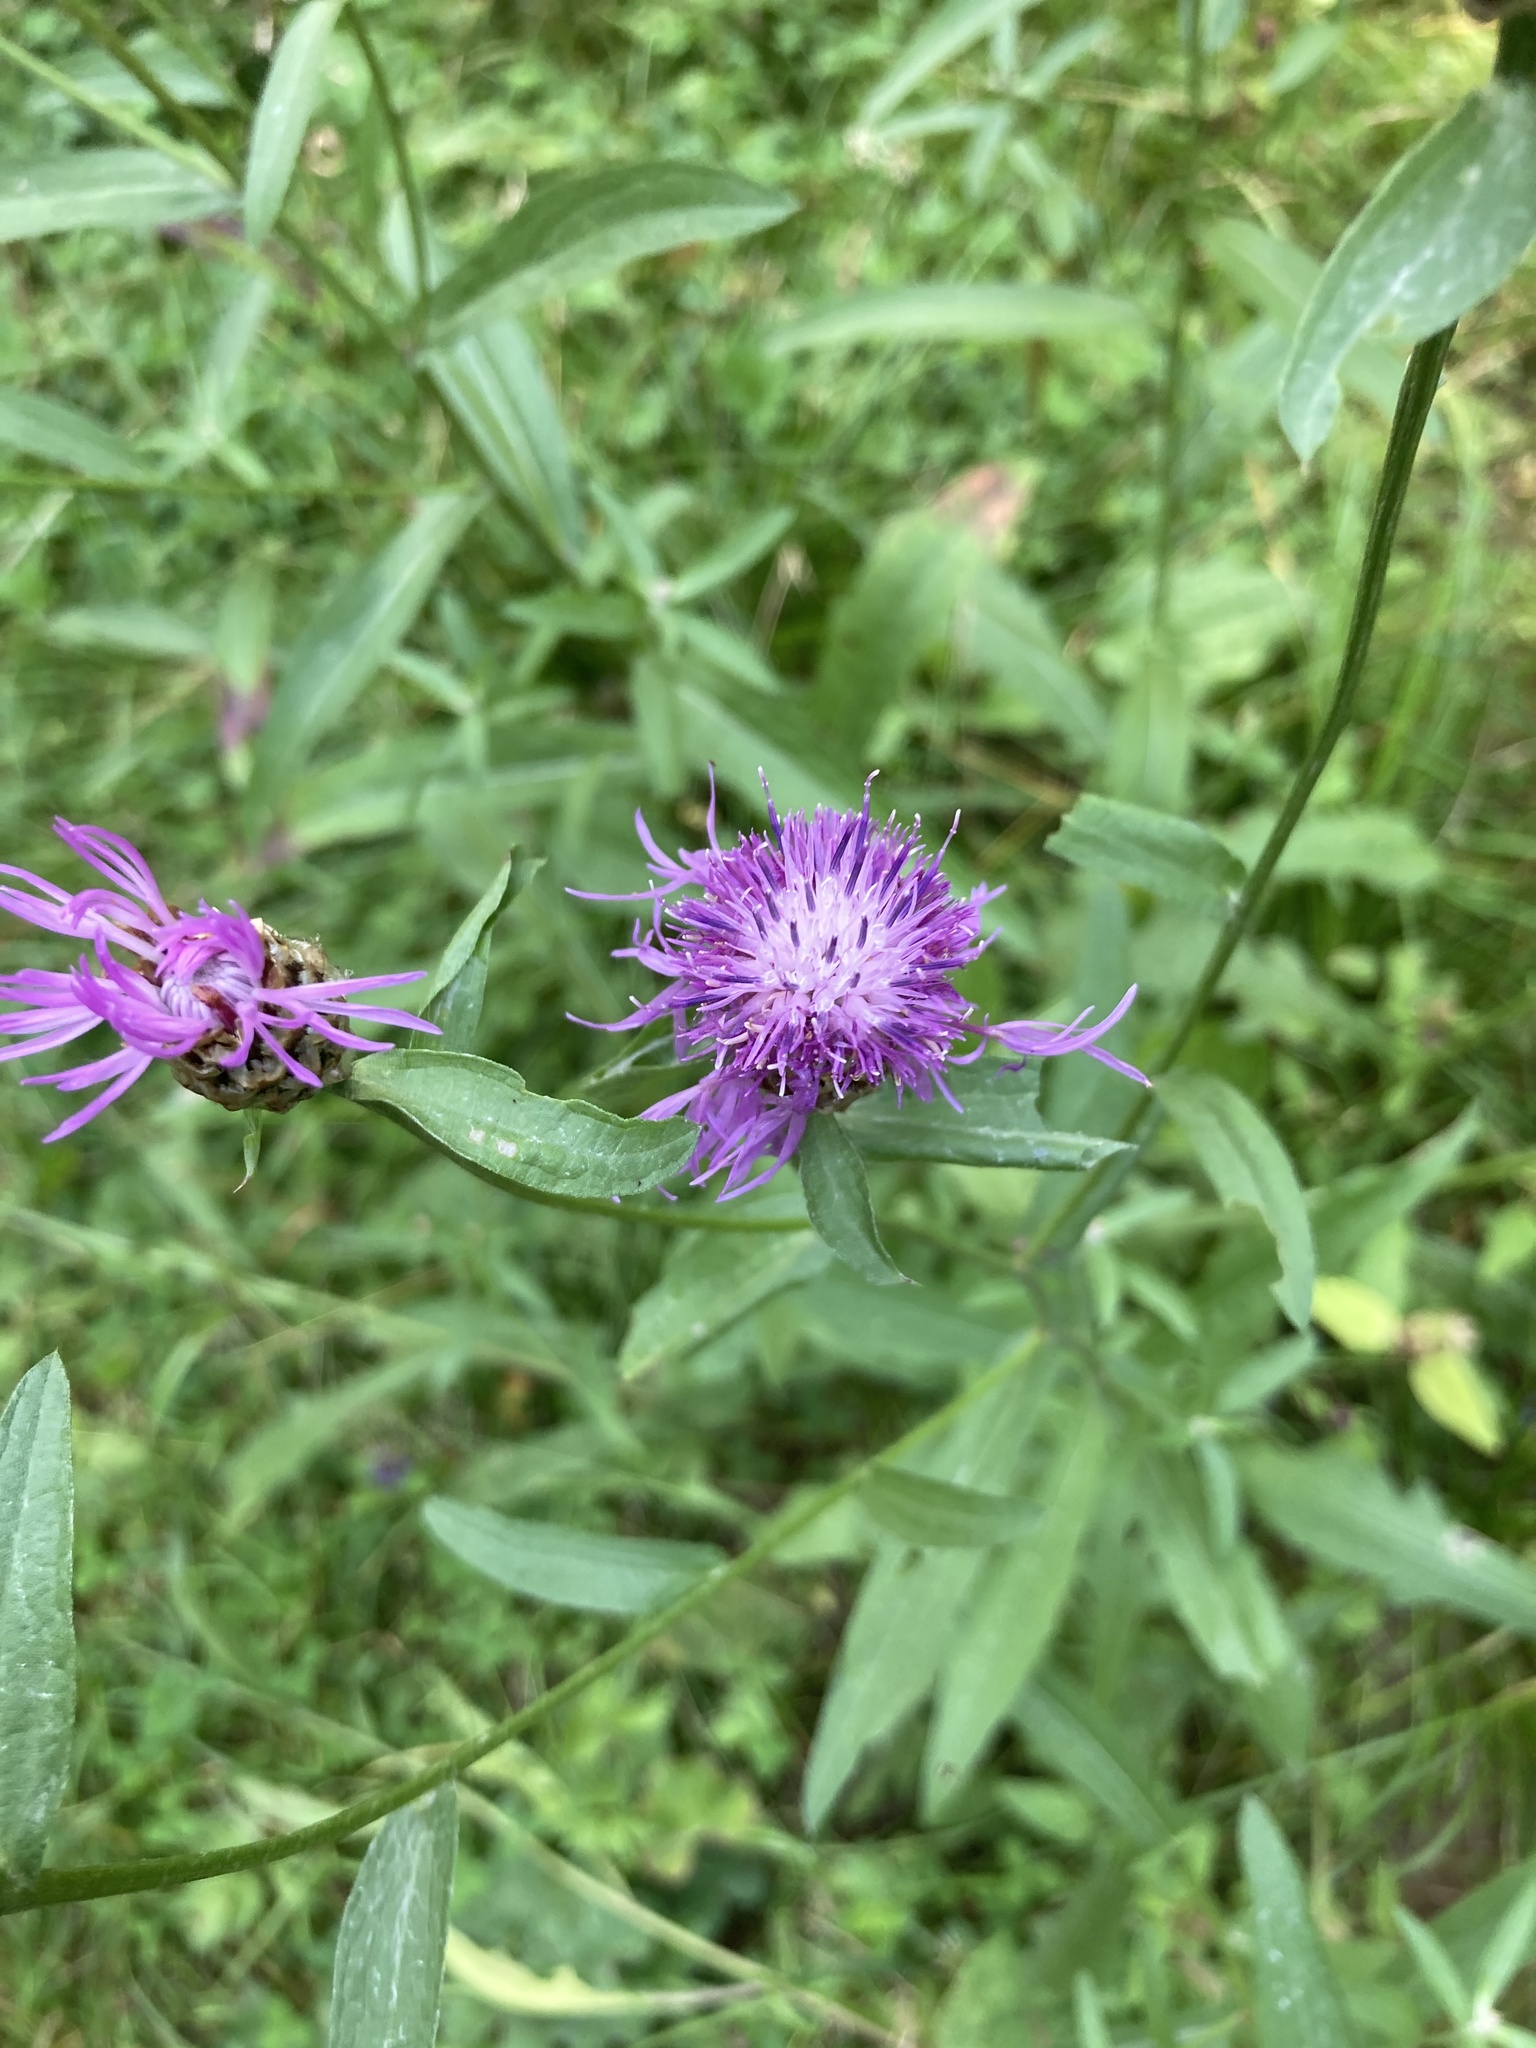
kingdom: Plantae
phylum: Tracheophyta
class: Magnoliopsida
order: Asterales
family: Asteraceae
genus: Centaurea
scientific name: Centaurea jacea
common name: Brown knapweed
